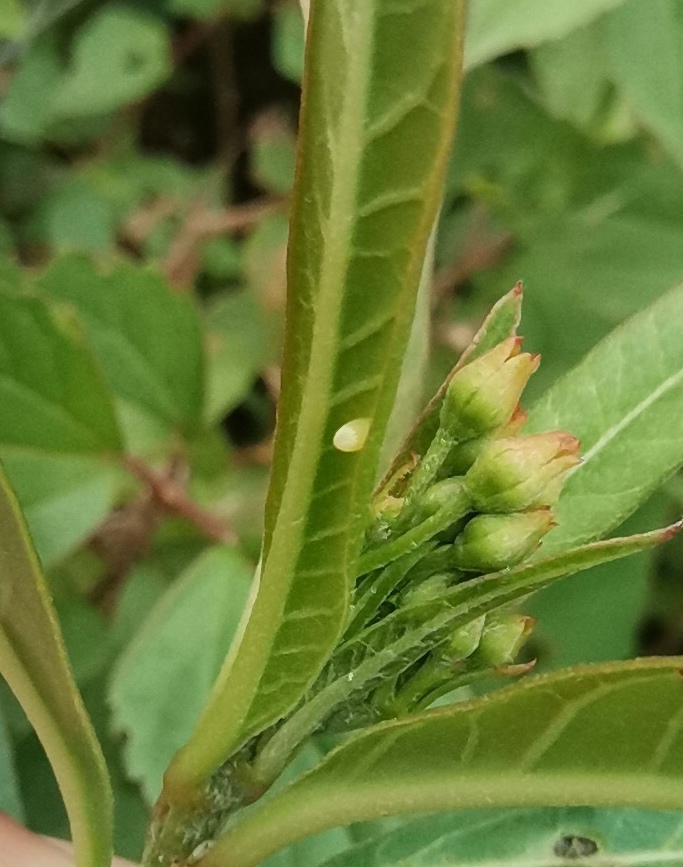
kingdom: Animalia
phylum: Arthropoda
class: Insecta
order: Lepidoptera
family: Nymphalidae
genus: Danaus
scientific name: Danaus plexippus
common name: Monarch
